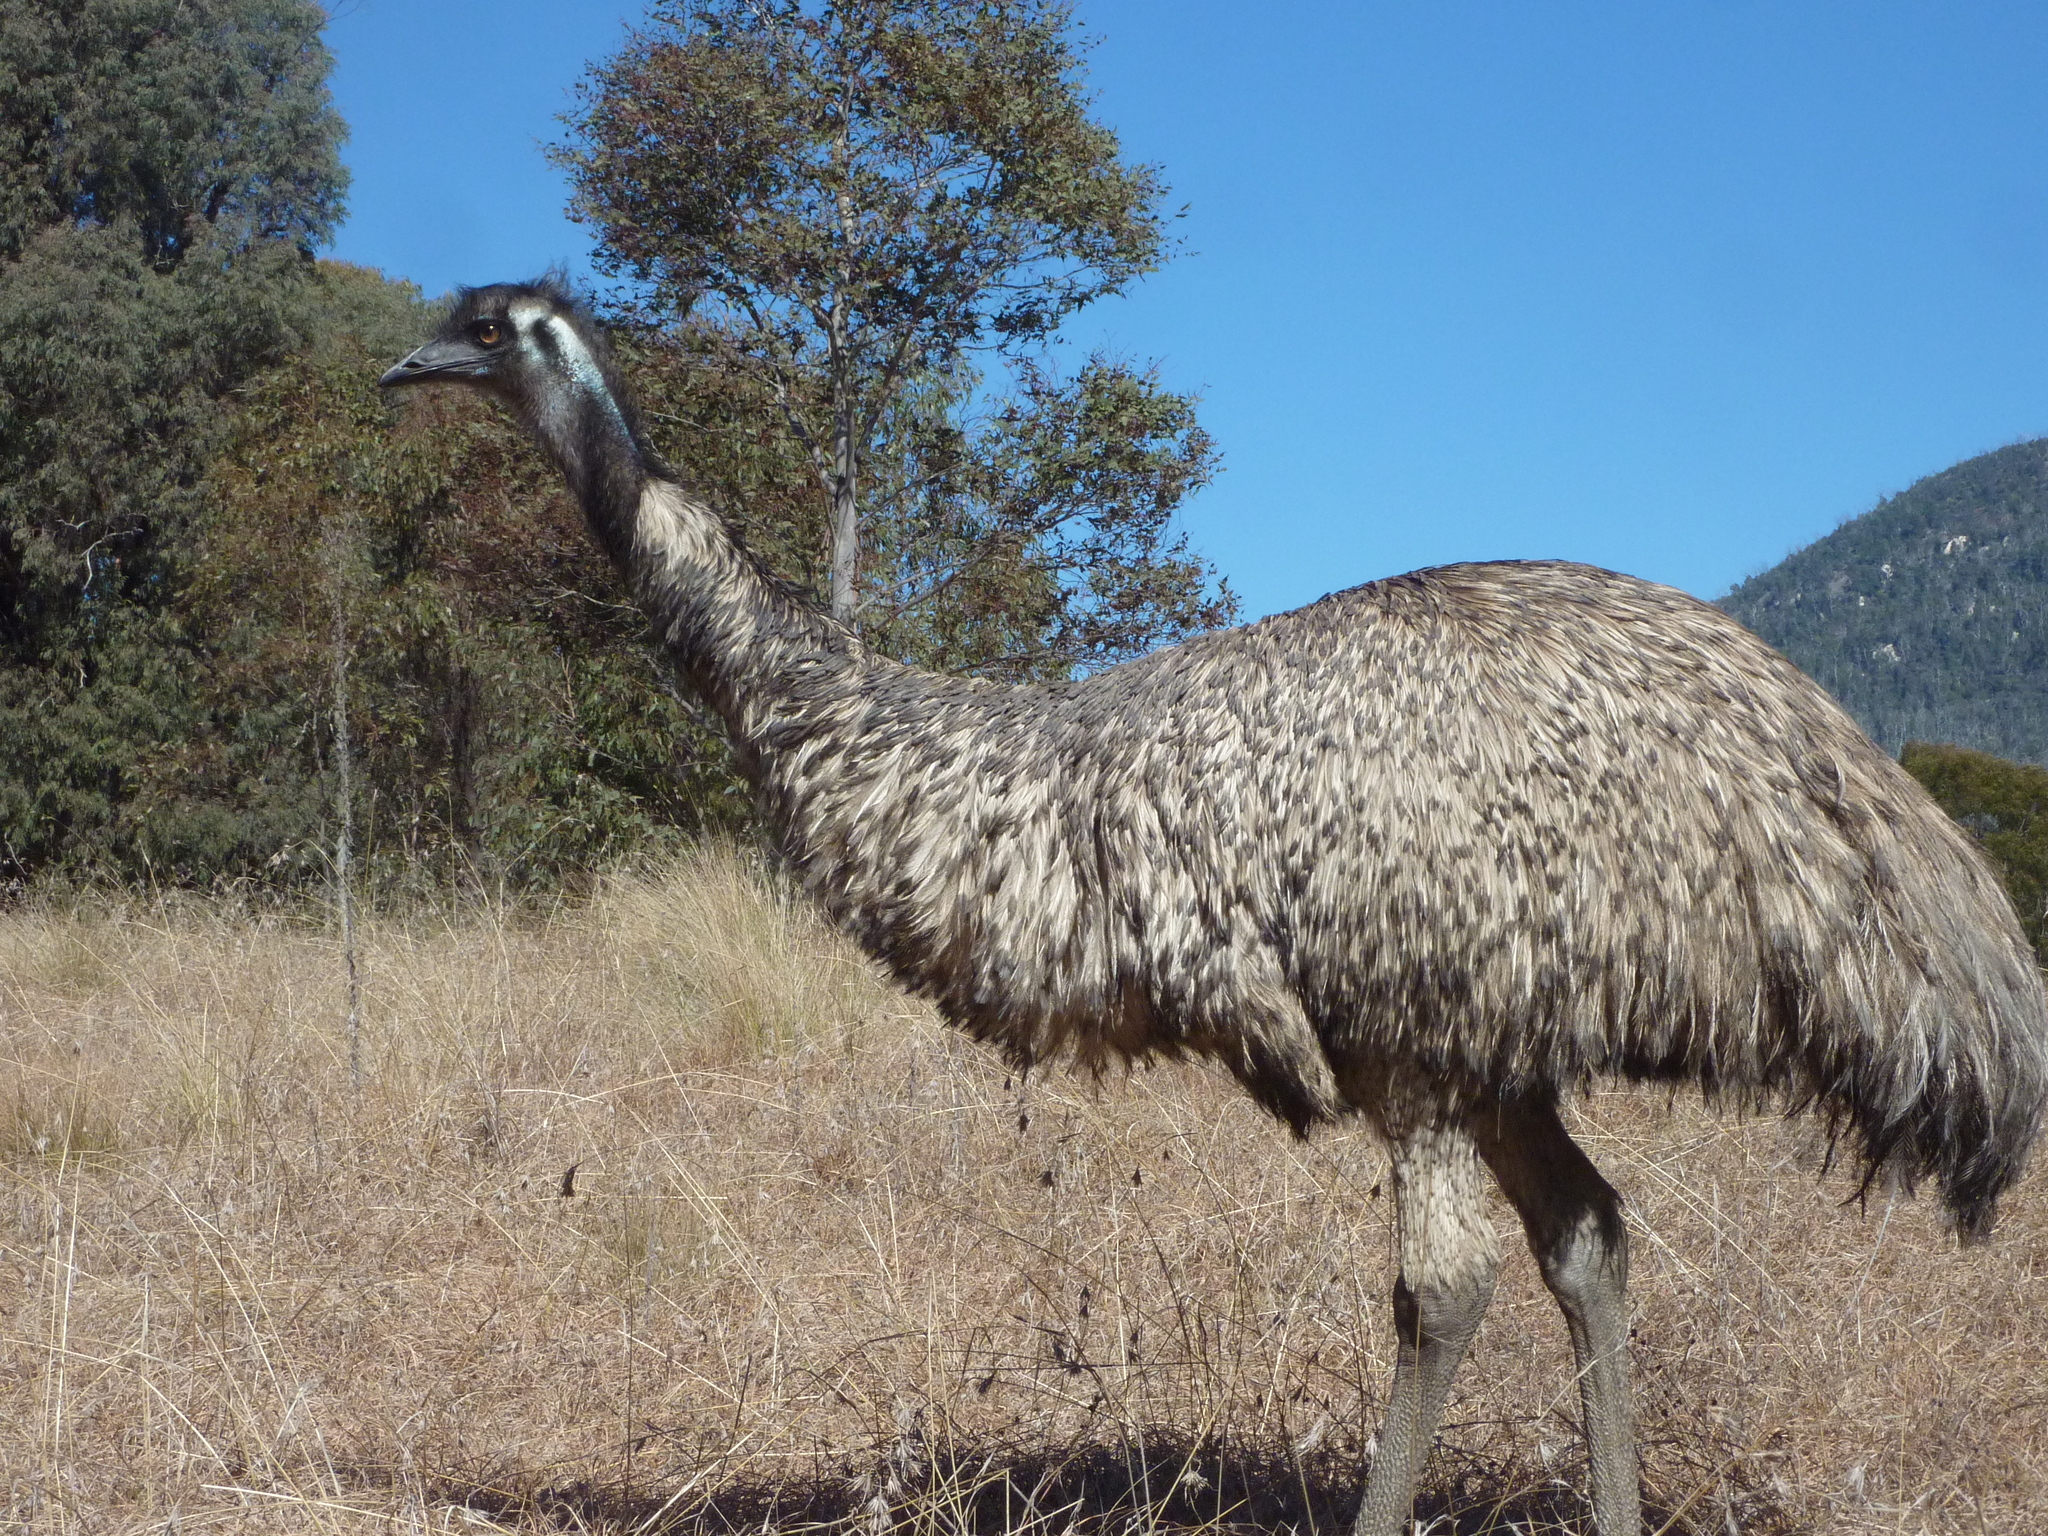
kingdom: Animalia
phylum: Chordata
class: Aves
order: Casuariiformes
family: Dromaiidae
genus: Dromaius
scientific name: Dromaius novaehollandiae
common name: Emu
